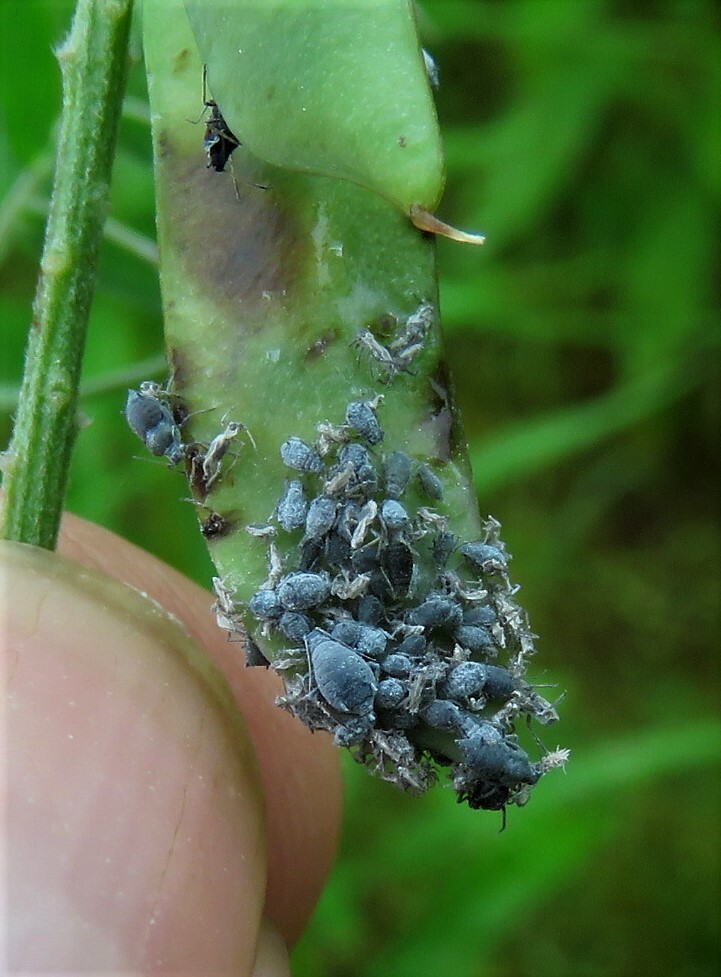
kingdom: Animalia
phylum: Arthropoda
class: Insecta
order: Hemiptera
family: Aphididae
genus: Aphis
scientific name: Aphis craccae
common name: Aphid
